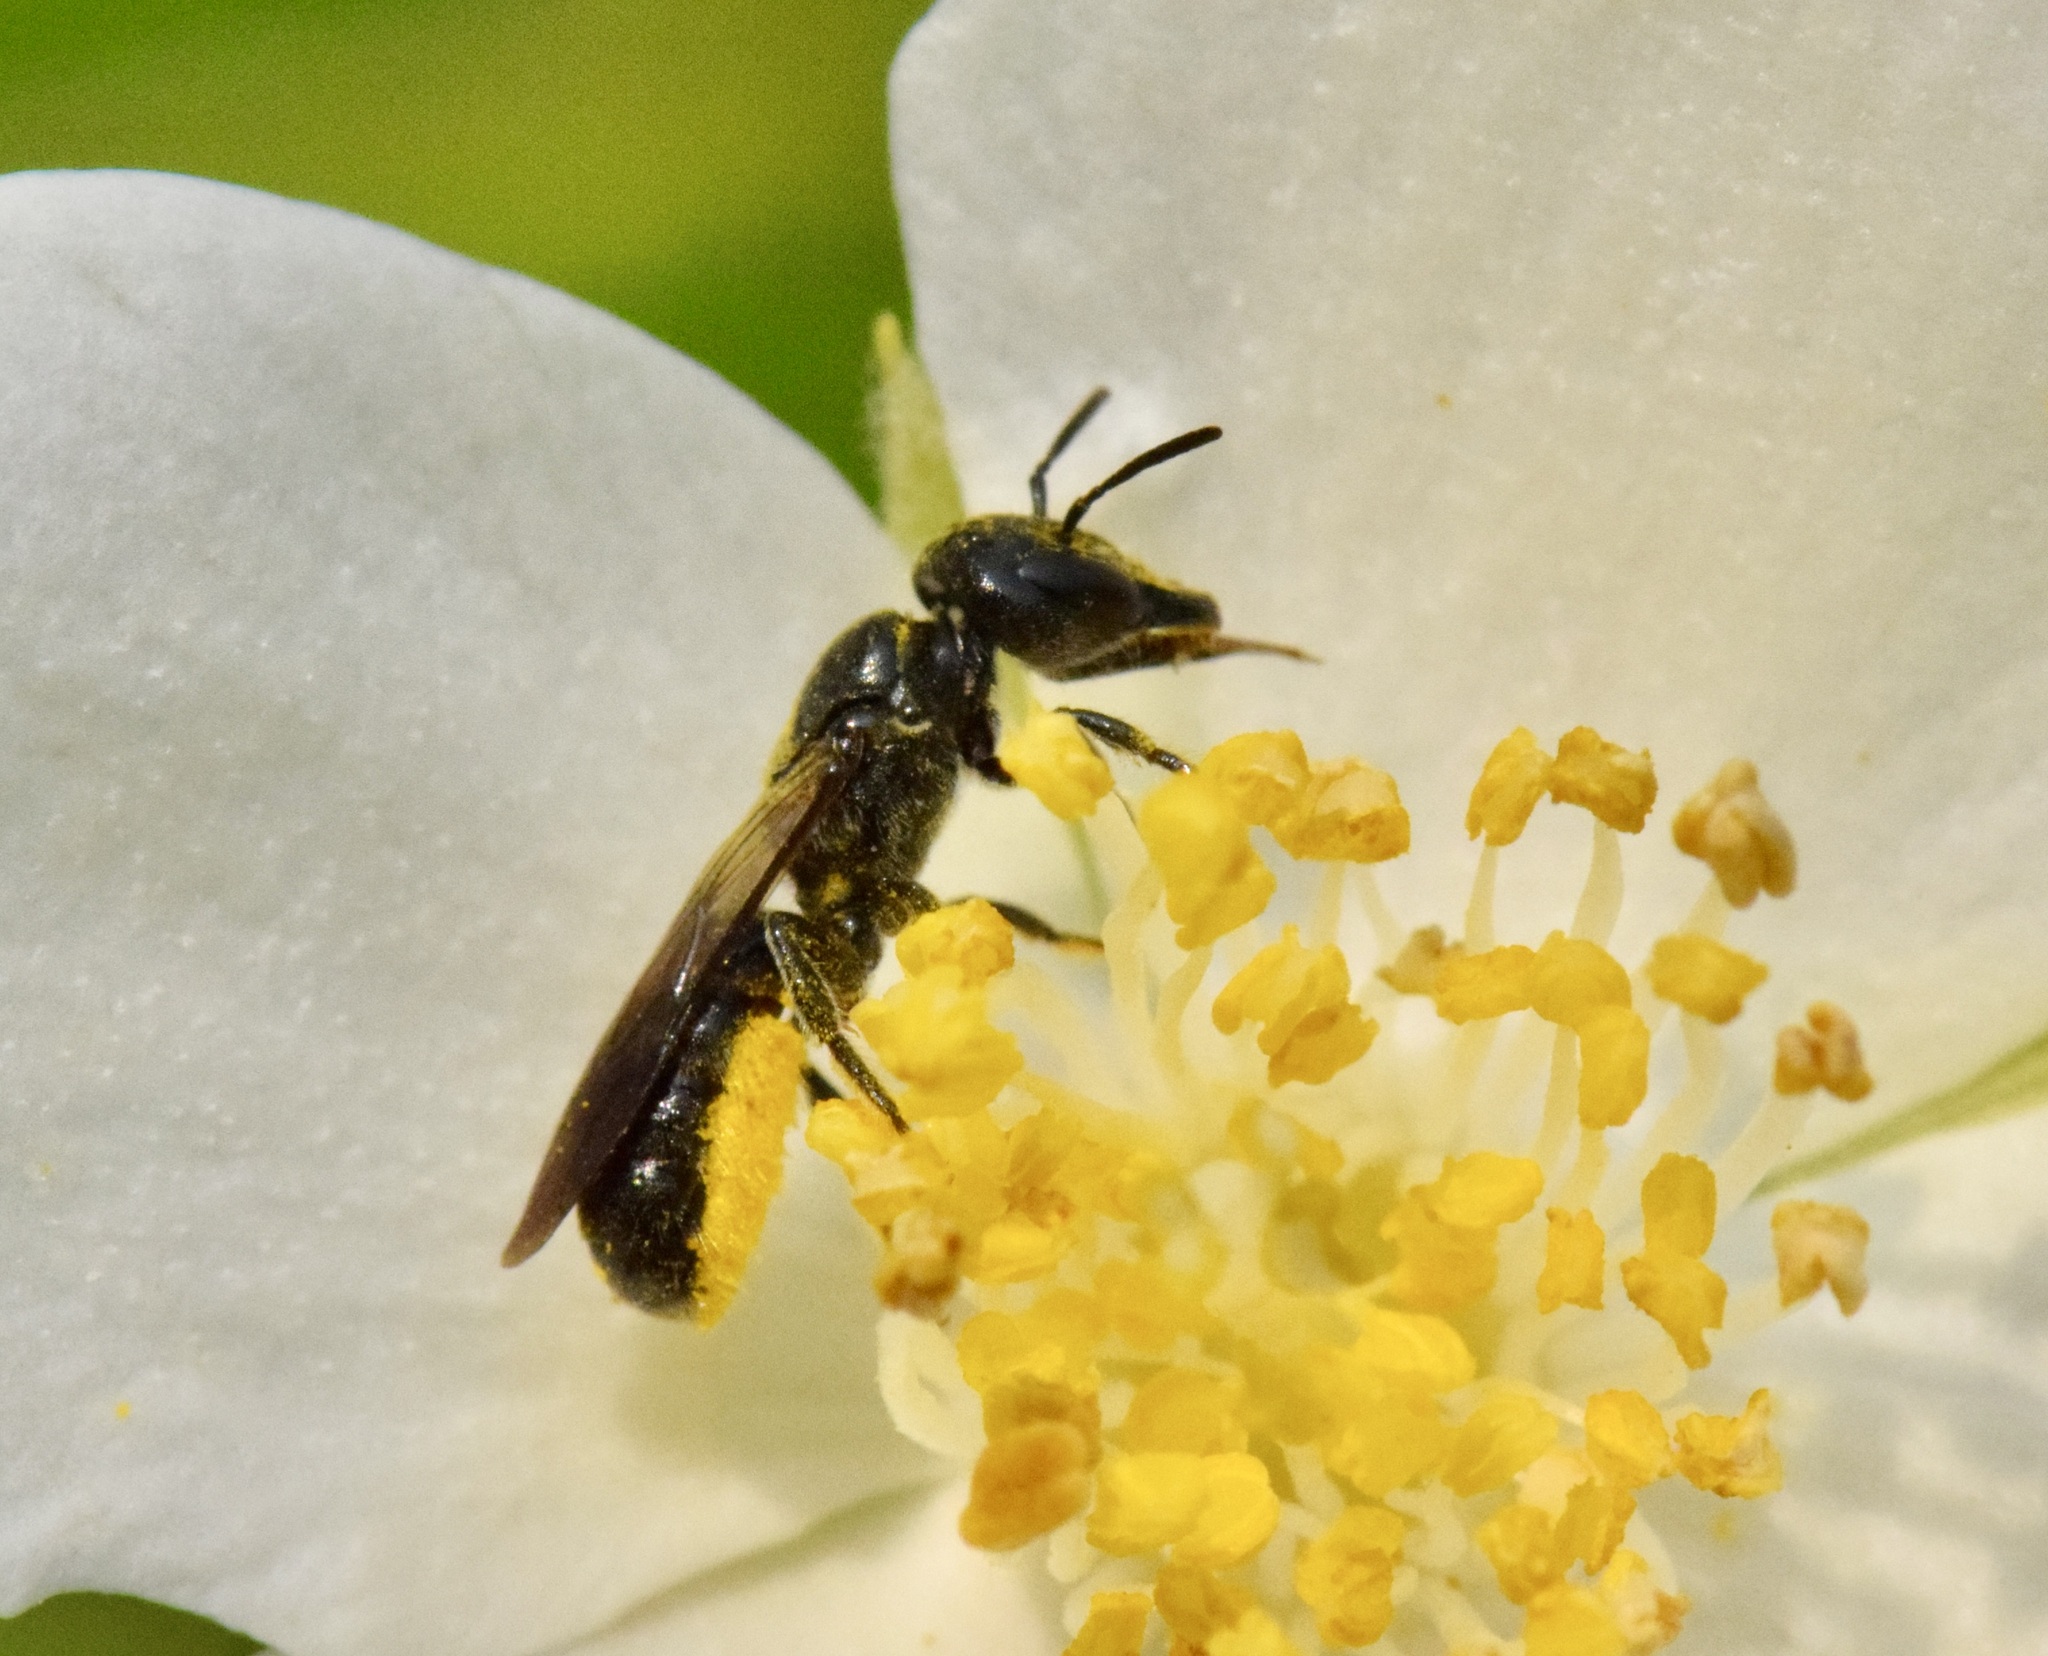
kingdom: Animalia
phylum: Arthropoda
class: Insecta
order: Hymenoptera
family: Megachilidae
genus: Chelostoma
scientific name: Chelostoma philadelphi
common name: Mock-orange scissor bee
